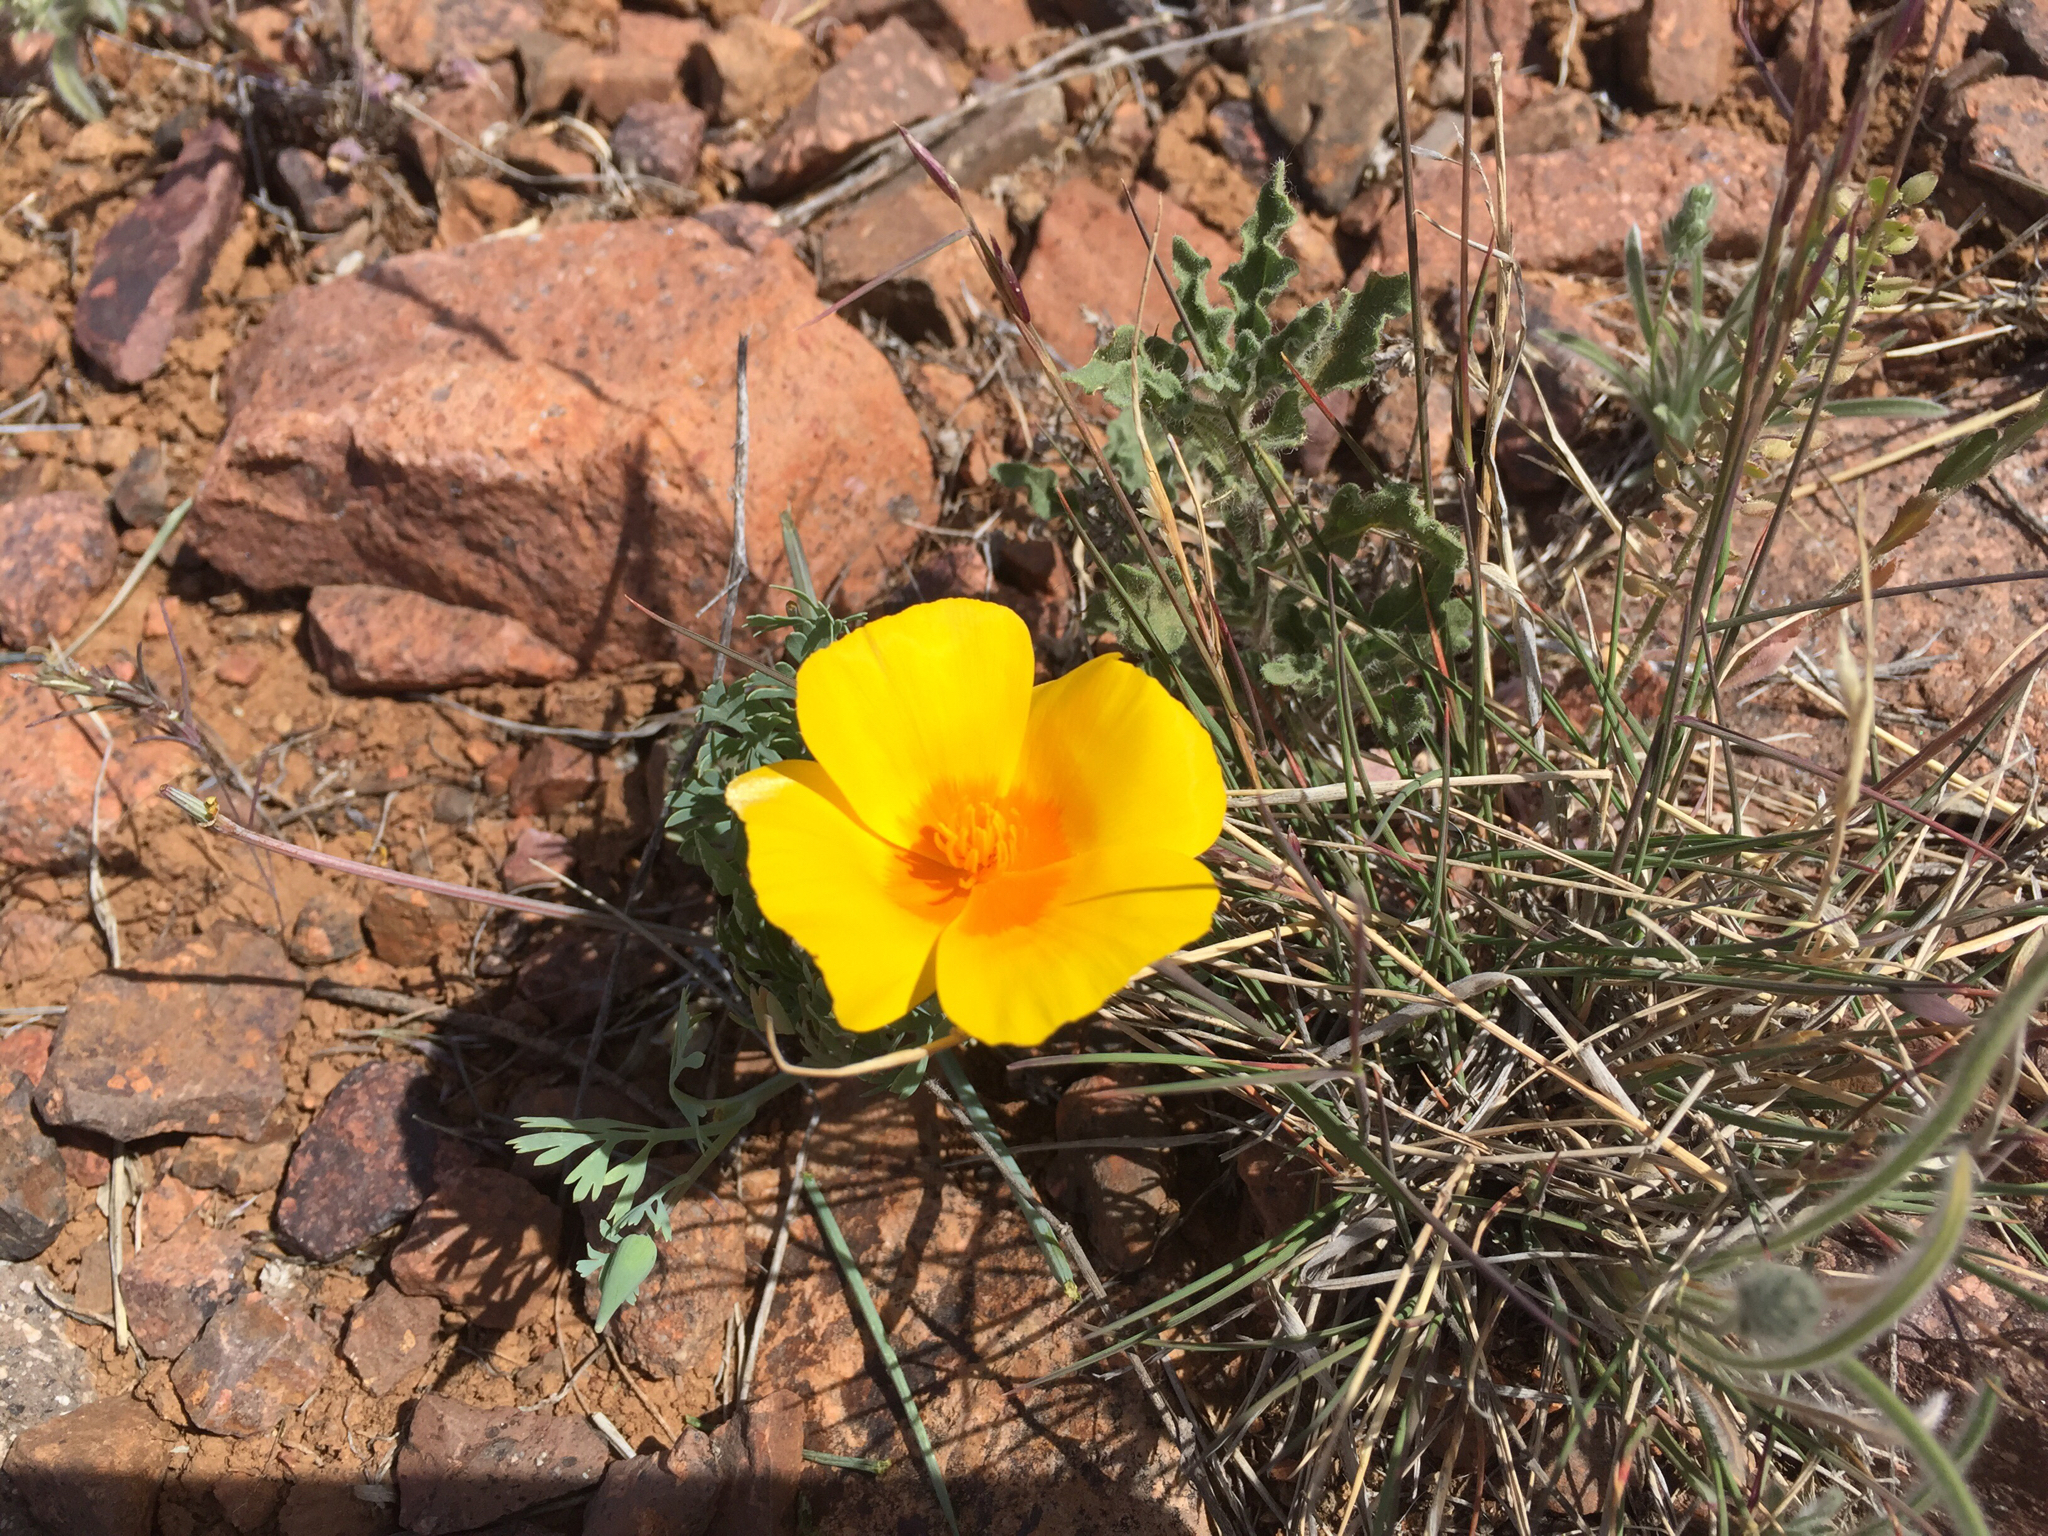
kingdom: Plantae
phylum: Tracheophyta
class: Magnoliopsida
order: Ranunculales
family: Papaveraceae
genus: Eschscholzia
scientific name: Eschscholzia californica
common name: California poppy
